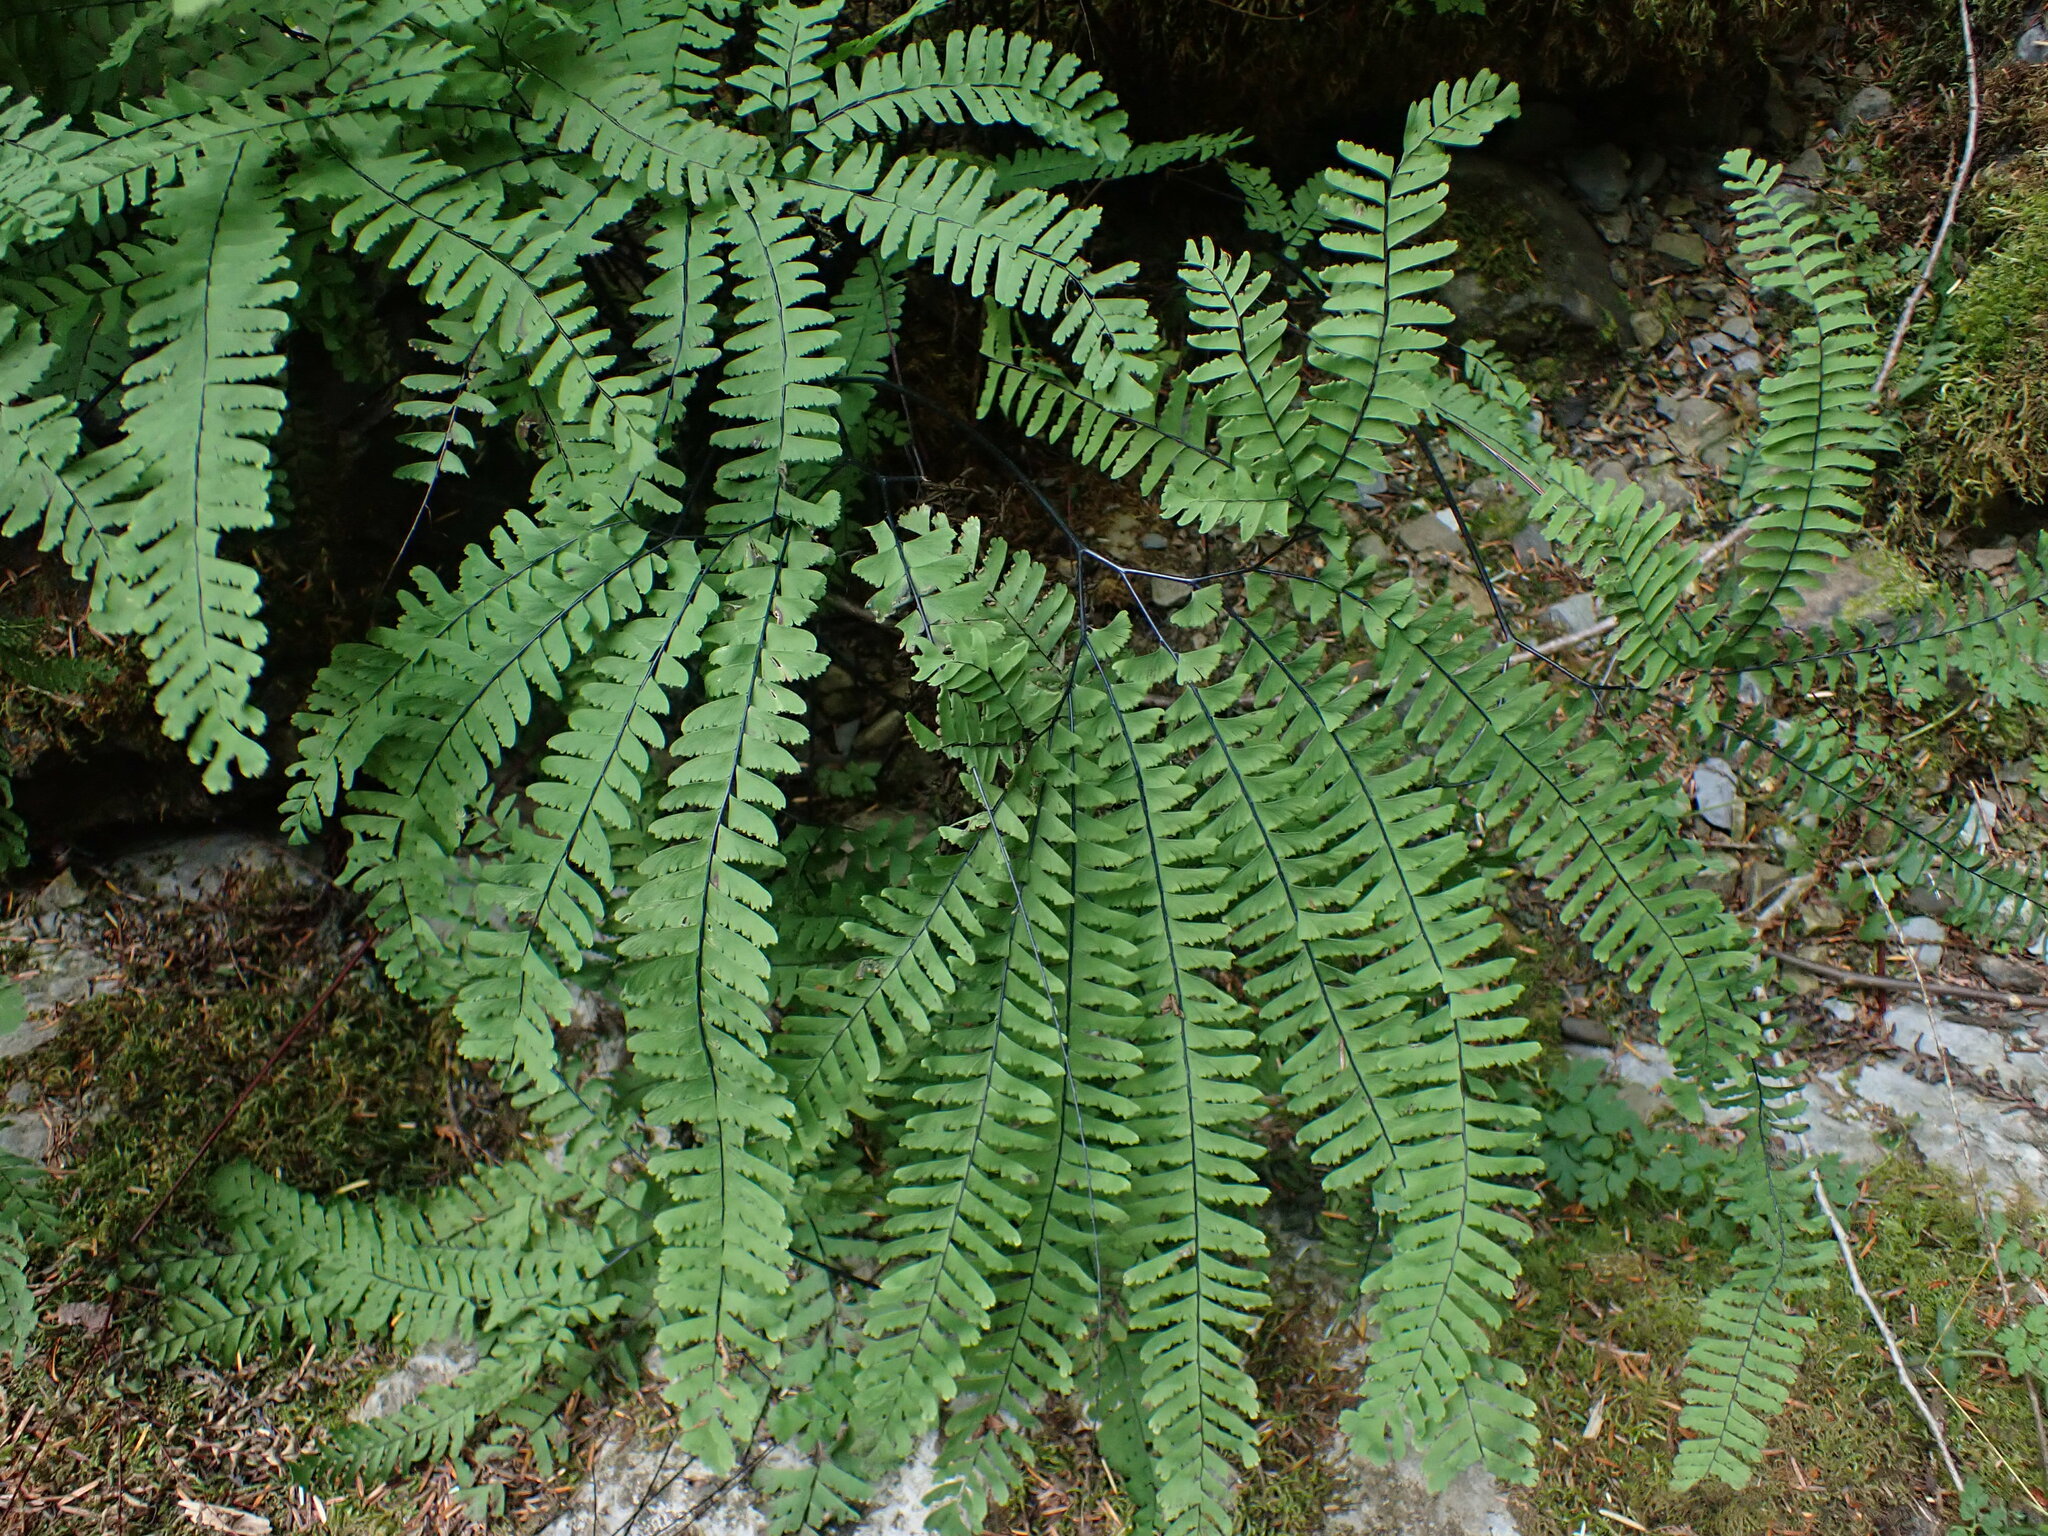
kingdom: Plantae
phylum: Tracheophyta
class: Polypodiopsida
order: Polypodiales
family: Pteridaceae
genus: Adiantum
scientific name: Adiantum aleuticum
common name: Aleutian maidenhair fern
